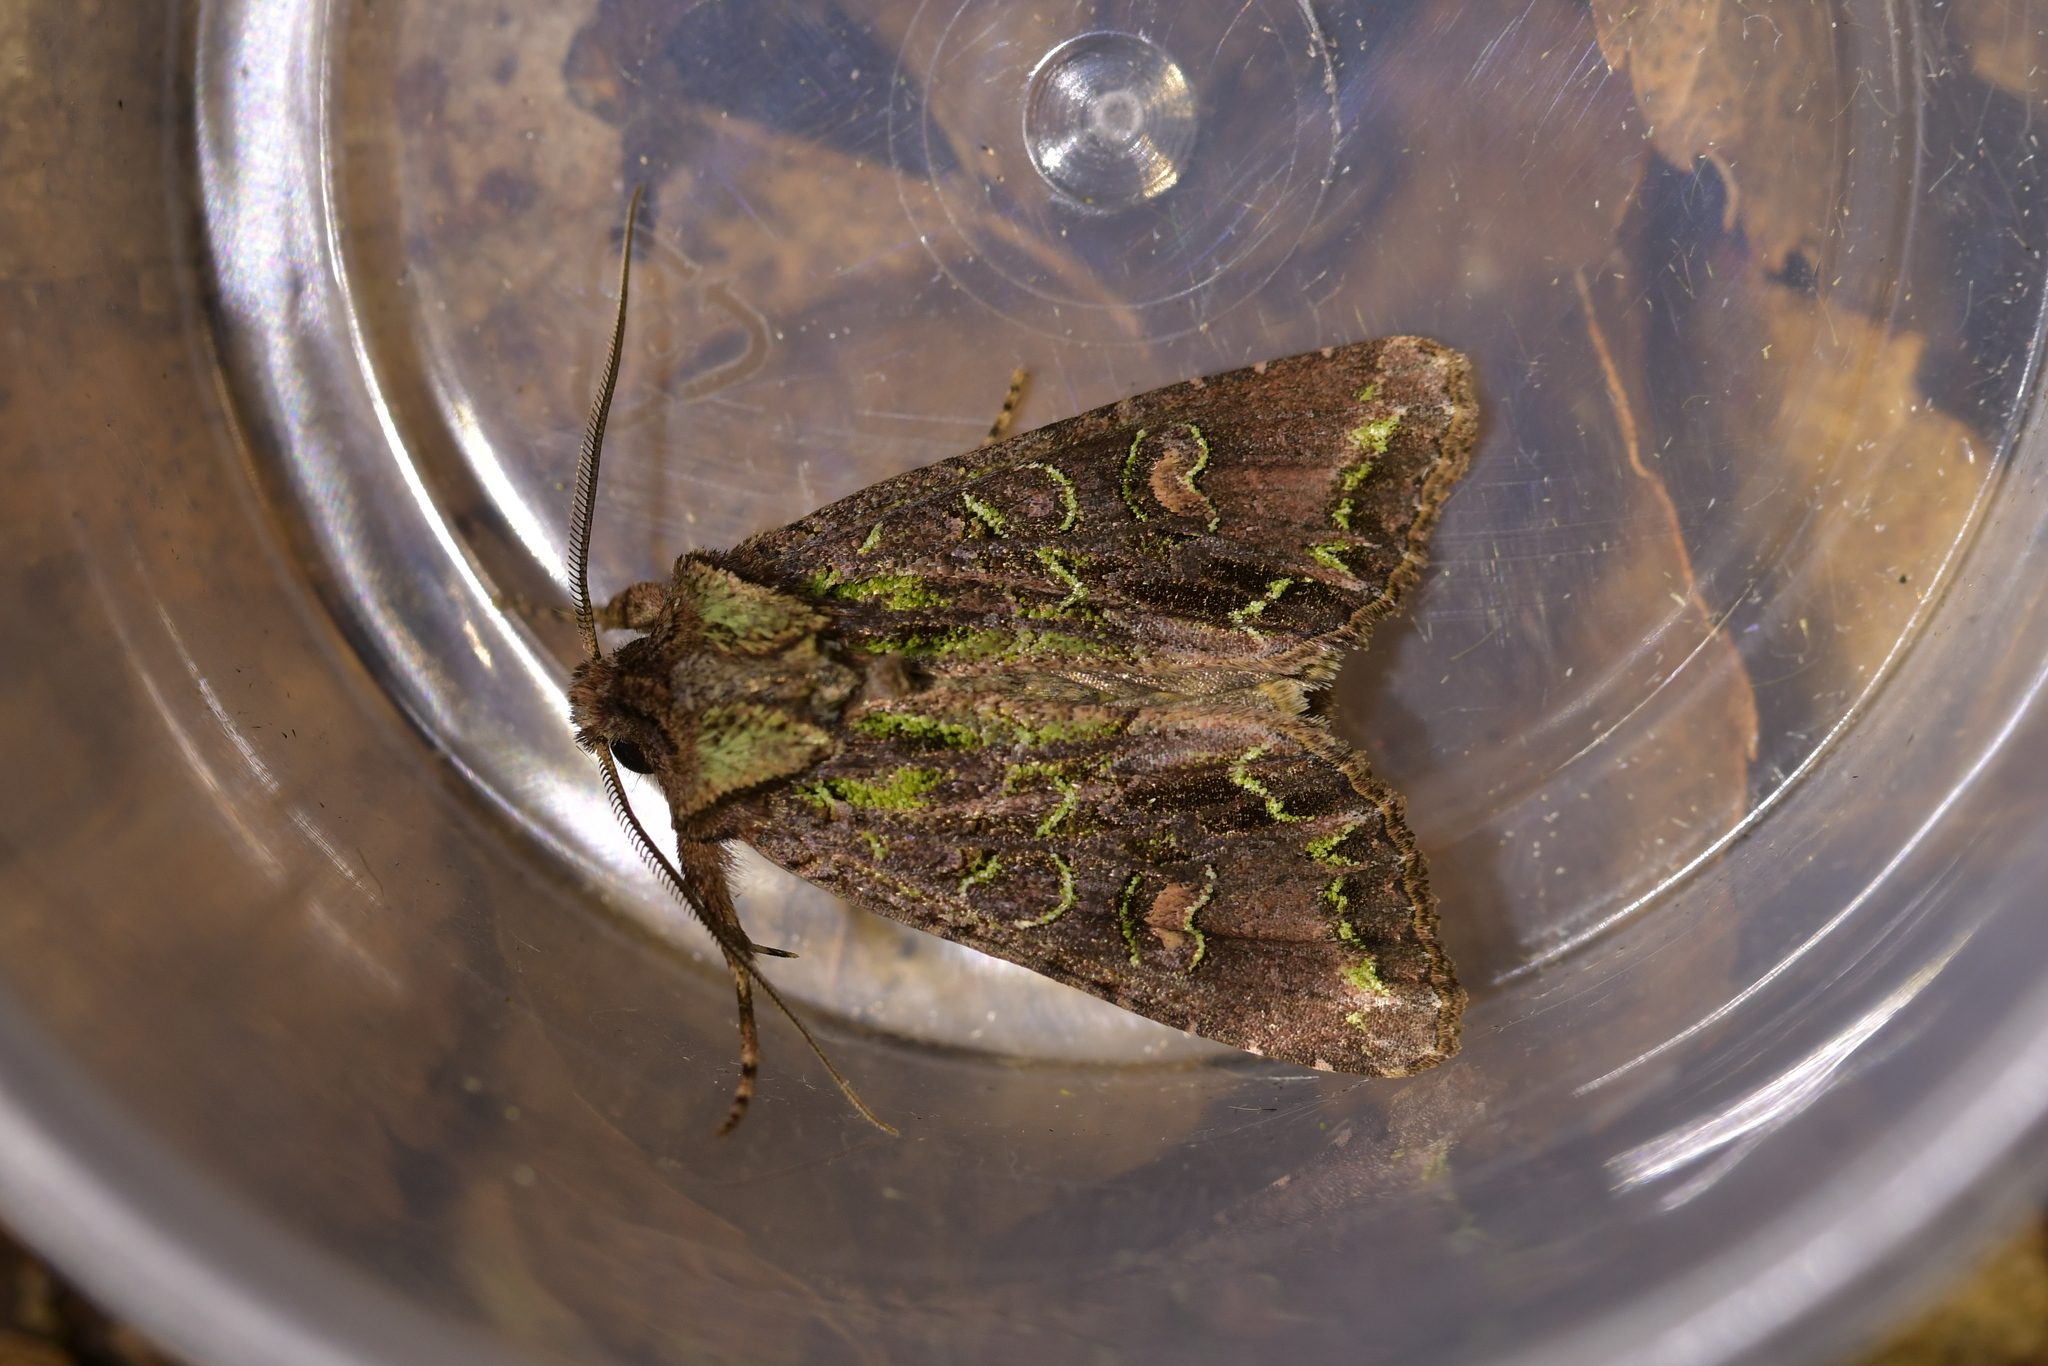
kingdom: Animalia
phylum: Arthropoda
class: Insecta
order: Lepidoptera
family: Noctuidae
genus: Ichneutica
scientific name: Ichneutica insignis
